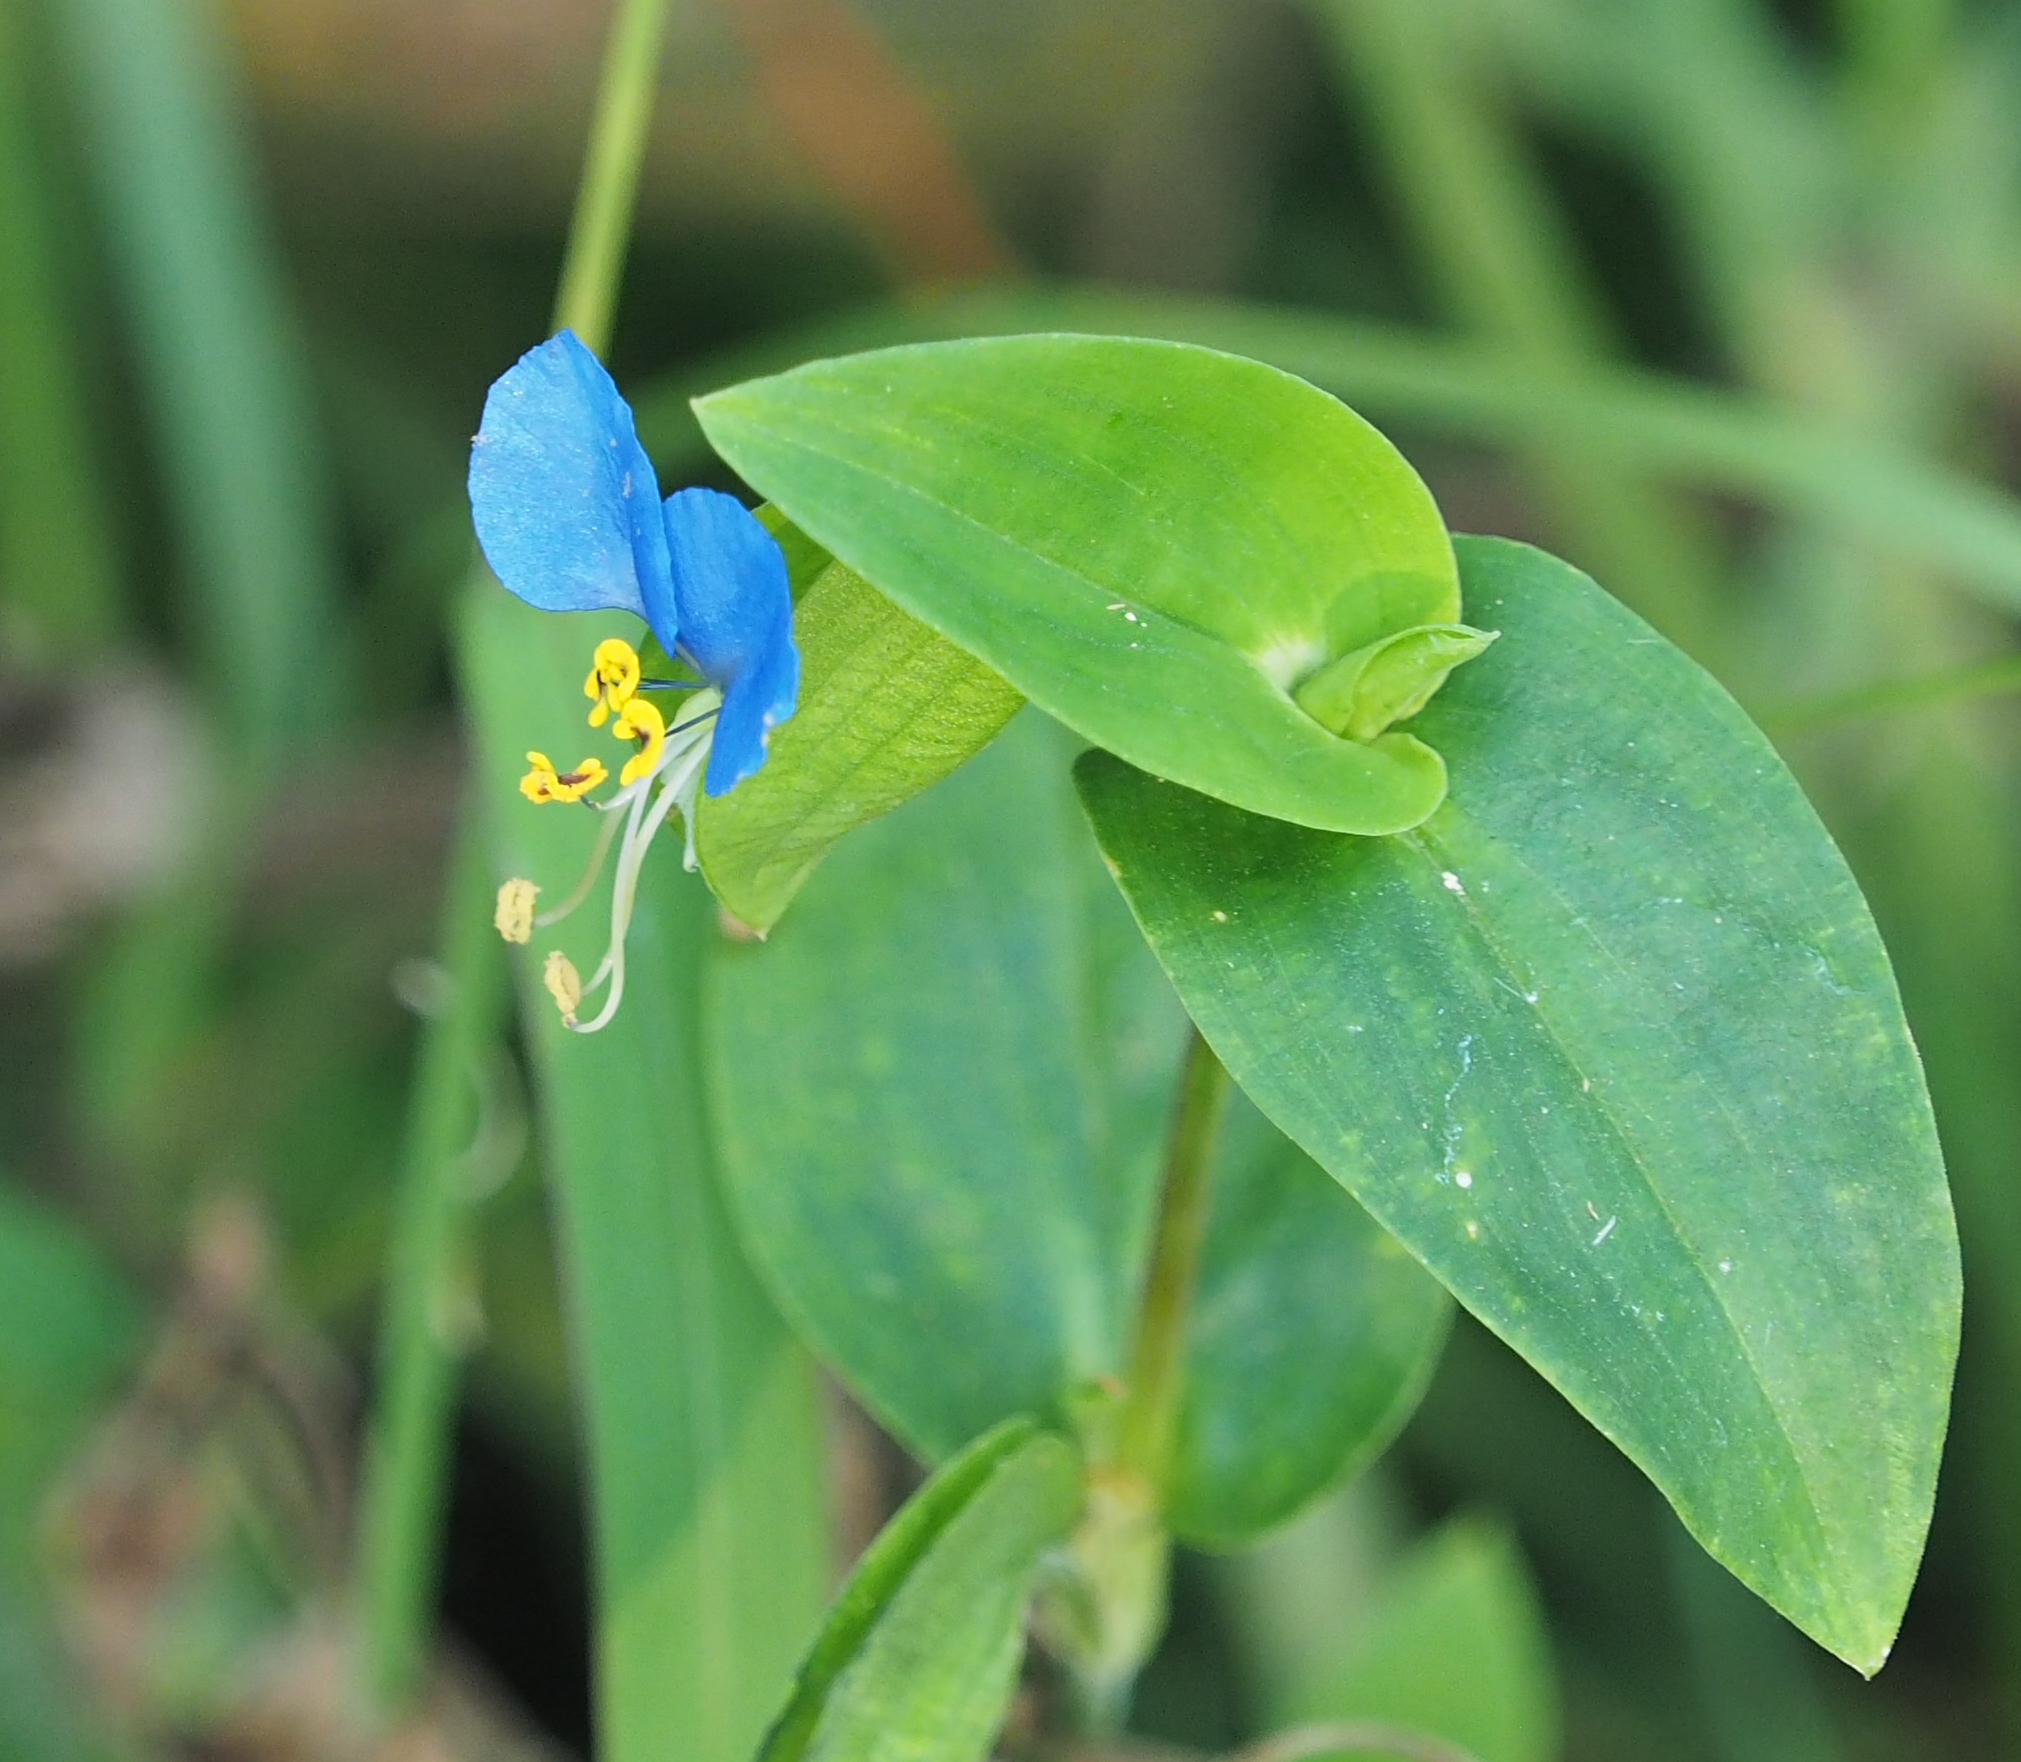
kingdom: Plantae
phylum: Tracheophyta
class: Liliopsida
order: Commelinales
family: Commelinaceae
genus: Commelina
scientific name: Commelina communis
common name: Asiatic dayflower
